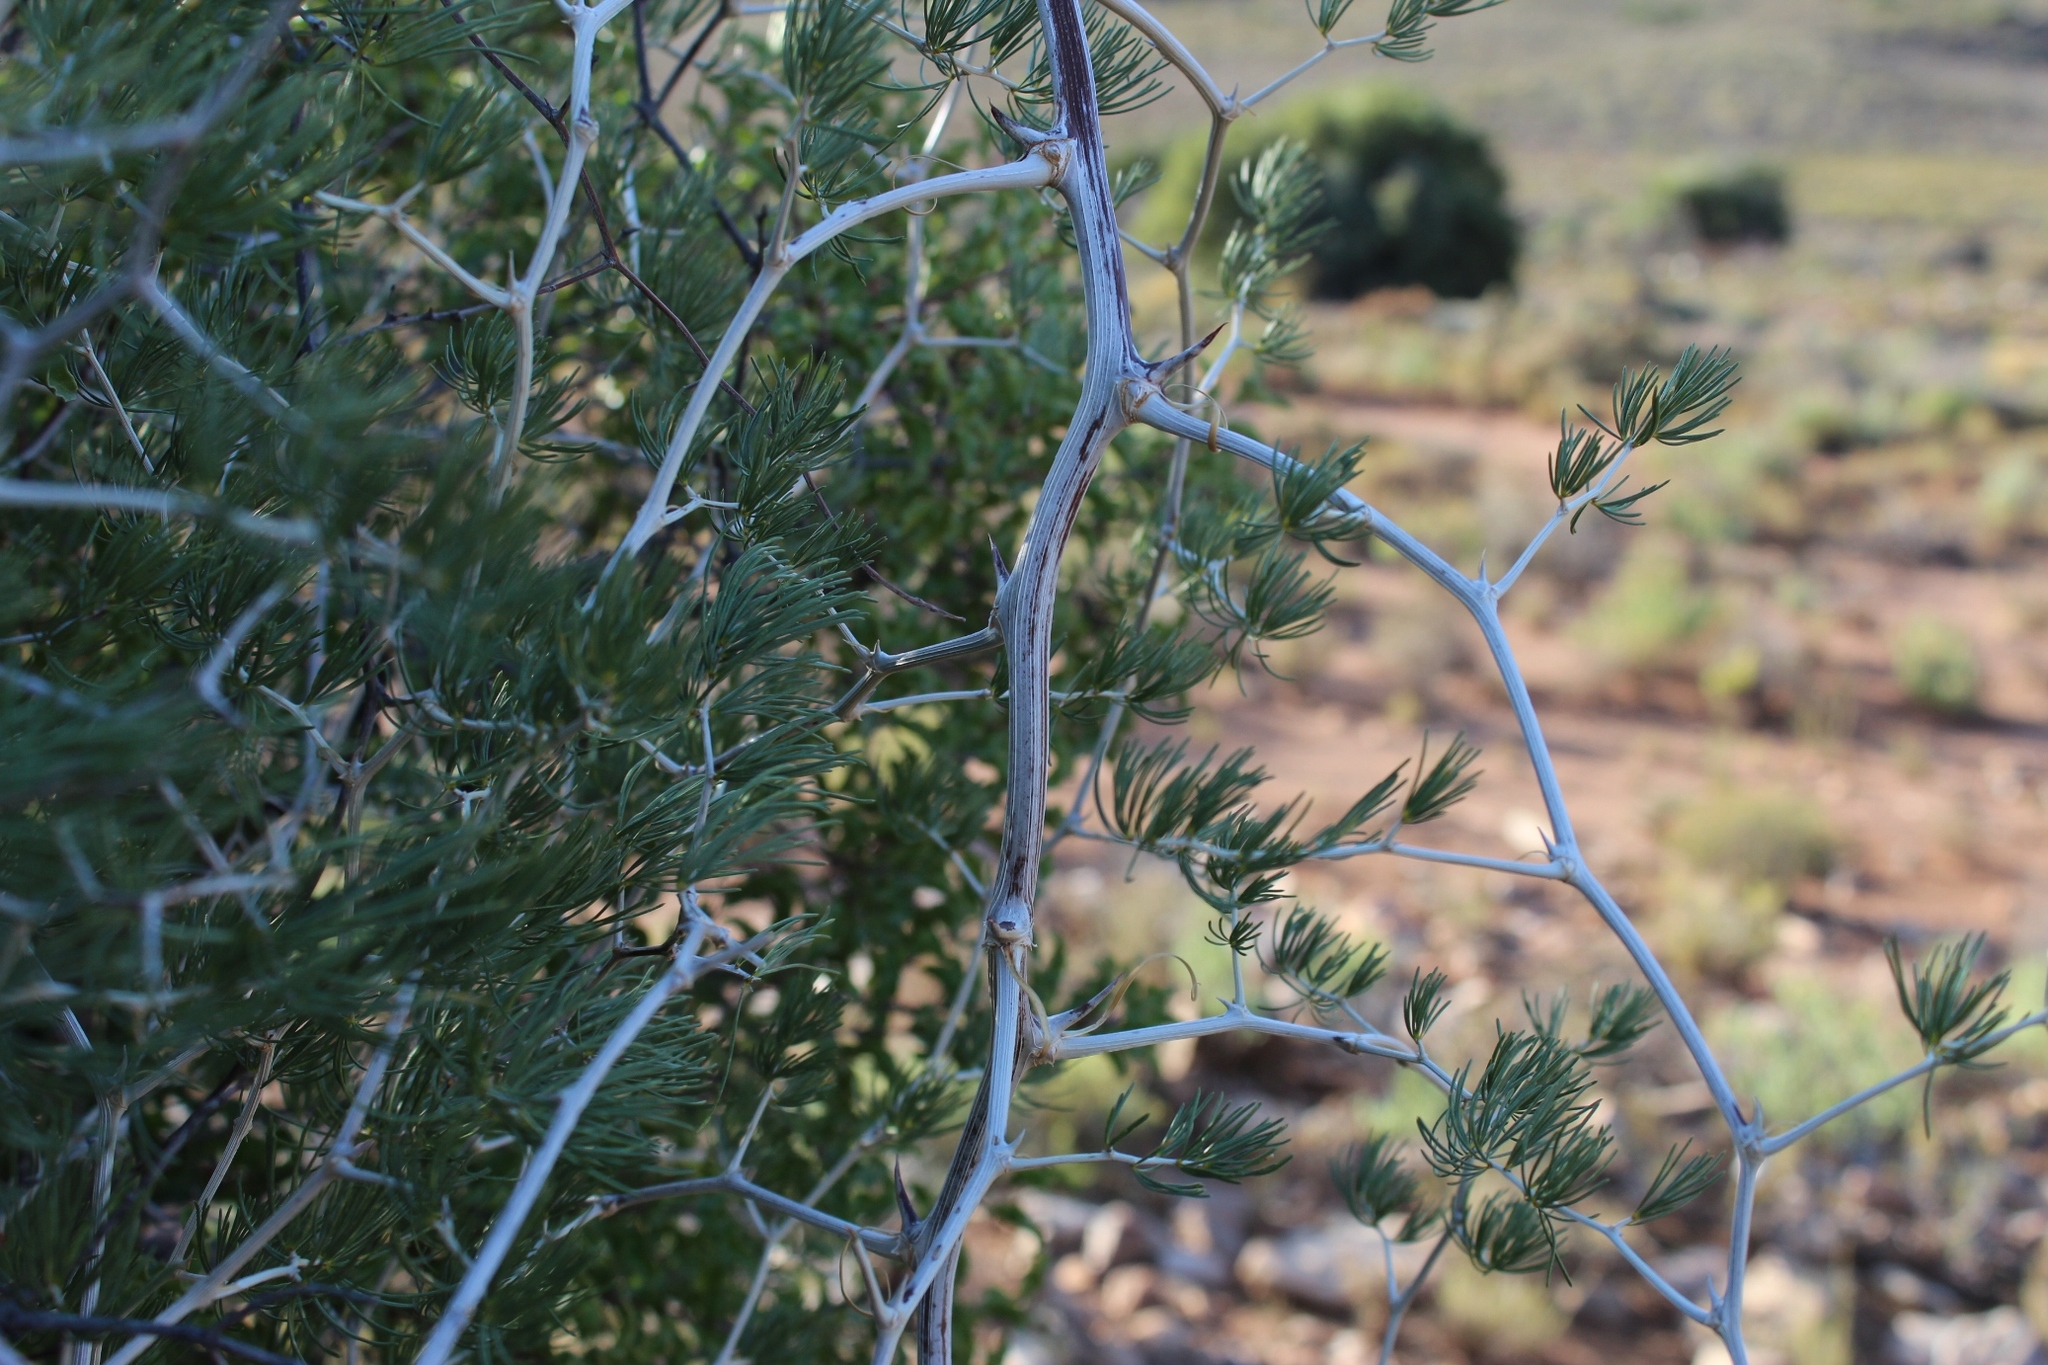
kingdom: Plantae
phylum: Tracheophyta
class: Liliopsida
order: Asparagales
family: Asparagaceae
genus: Asparagus
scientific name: Asparagus retrofractus
